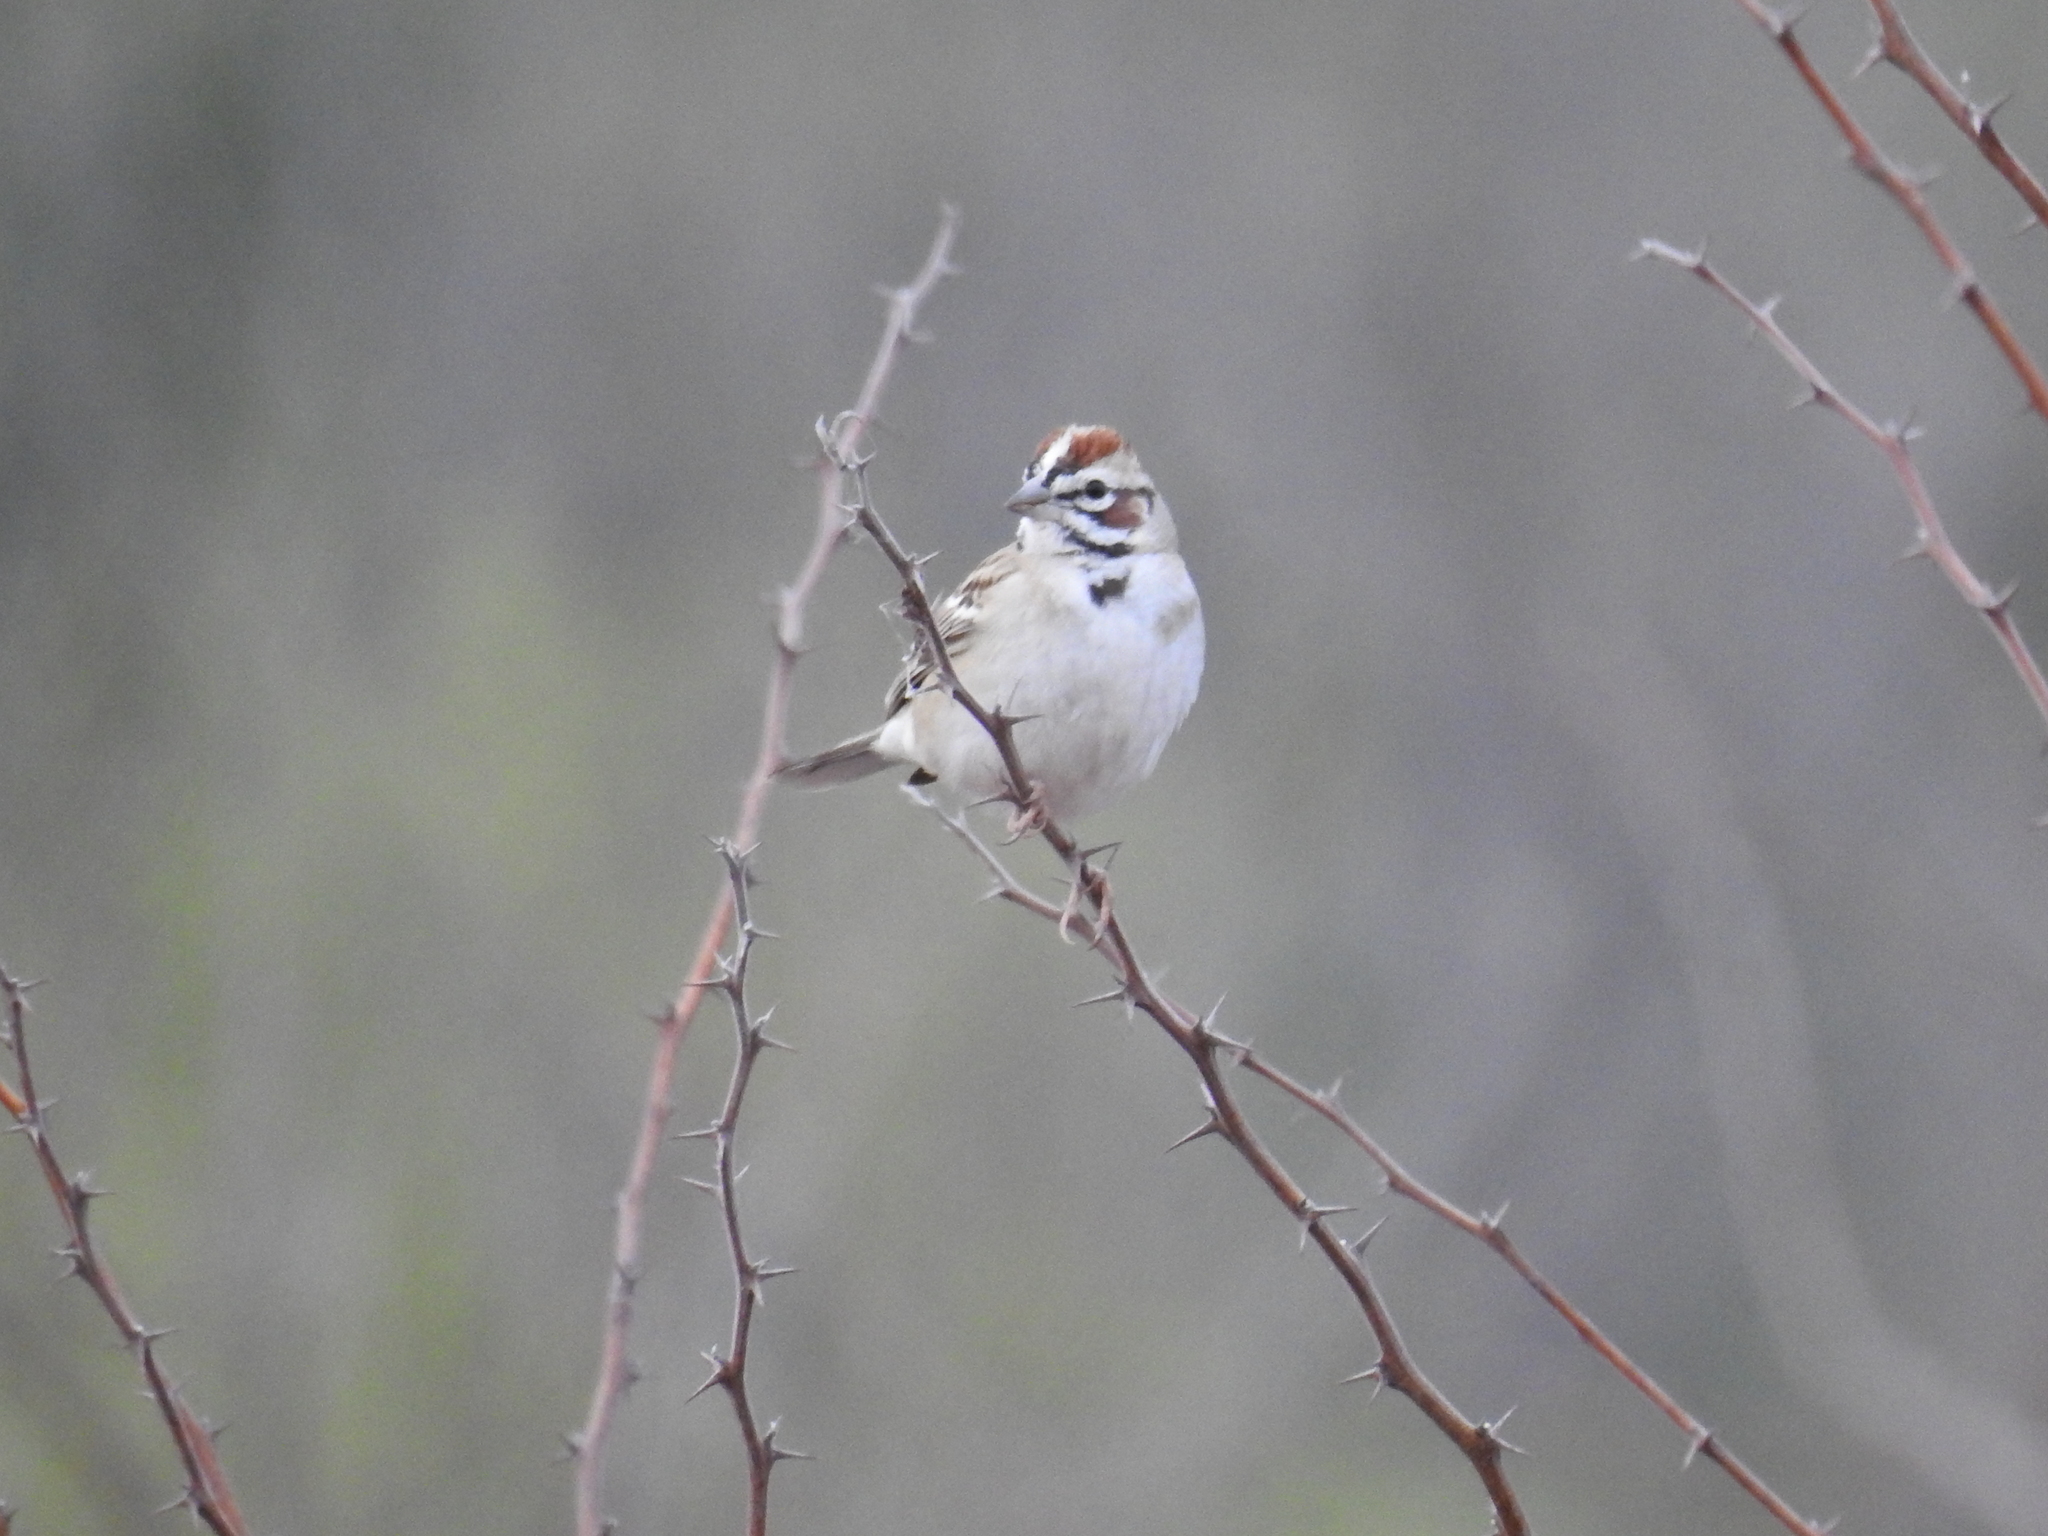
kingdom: Animalia
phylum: Chordata
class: Aves
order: Passeriformes
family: Passerellidae
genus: Chondestes
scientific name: Chondestes grammacus
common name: Lark sparrow
